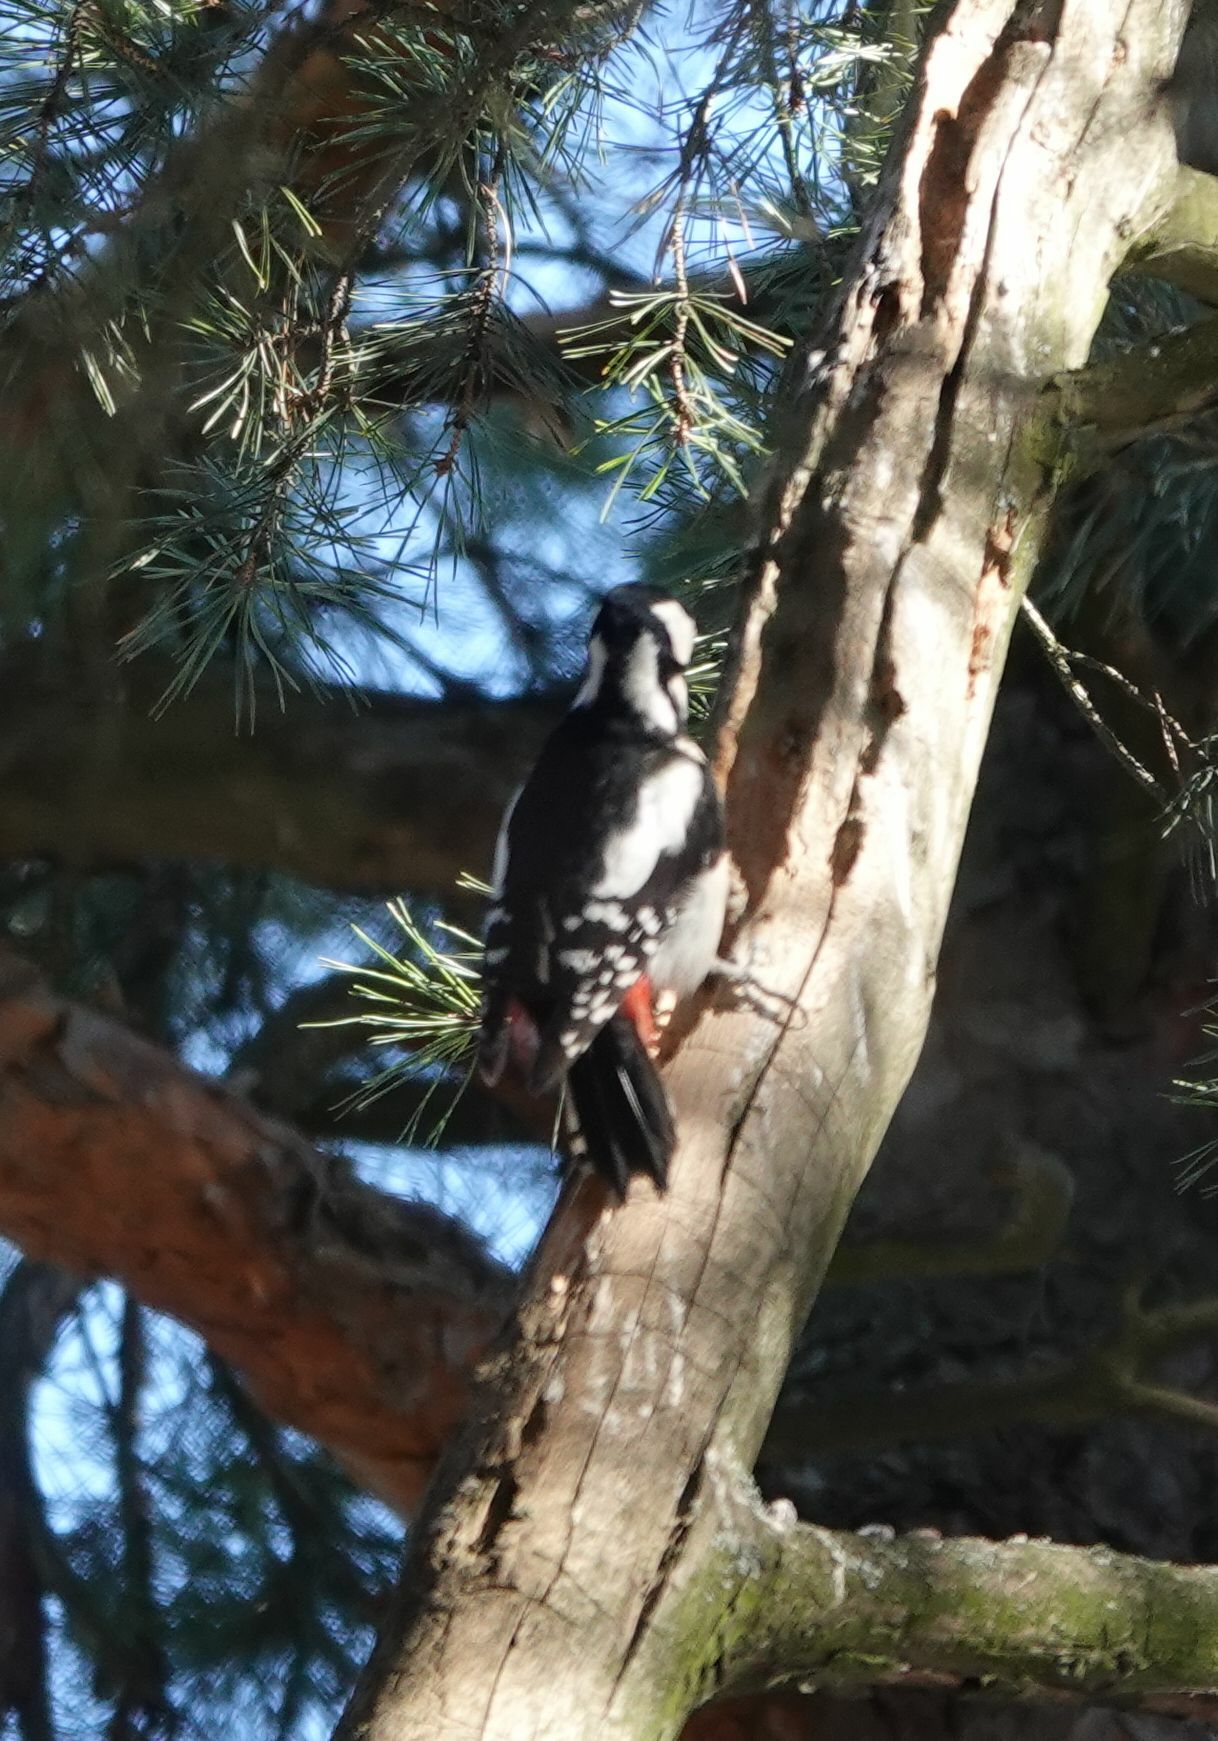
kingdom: Animalia
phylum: Chordata
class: Aves
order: Piciformes
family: Picidae
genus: Dendrocopos
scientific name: Dendrocopos major
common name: Great spotted woodpecker
